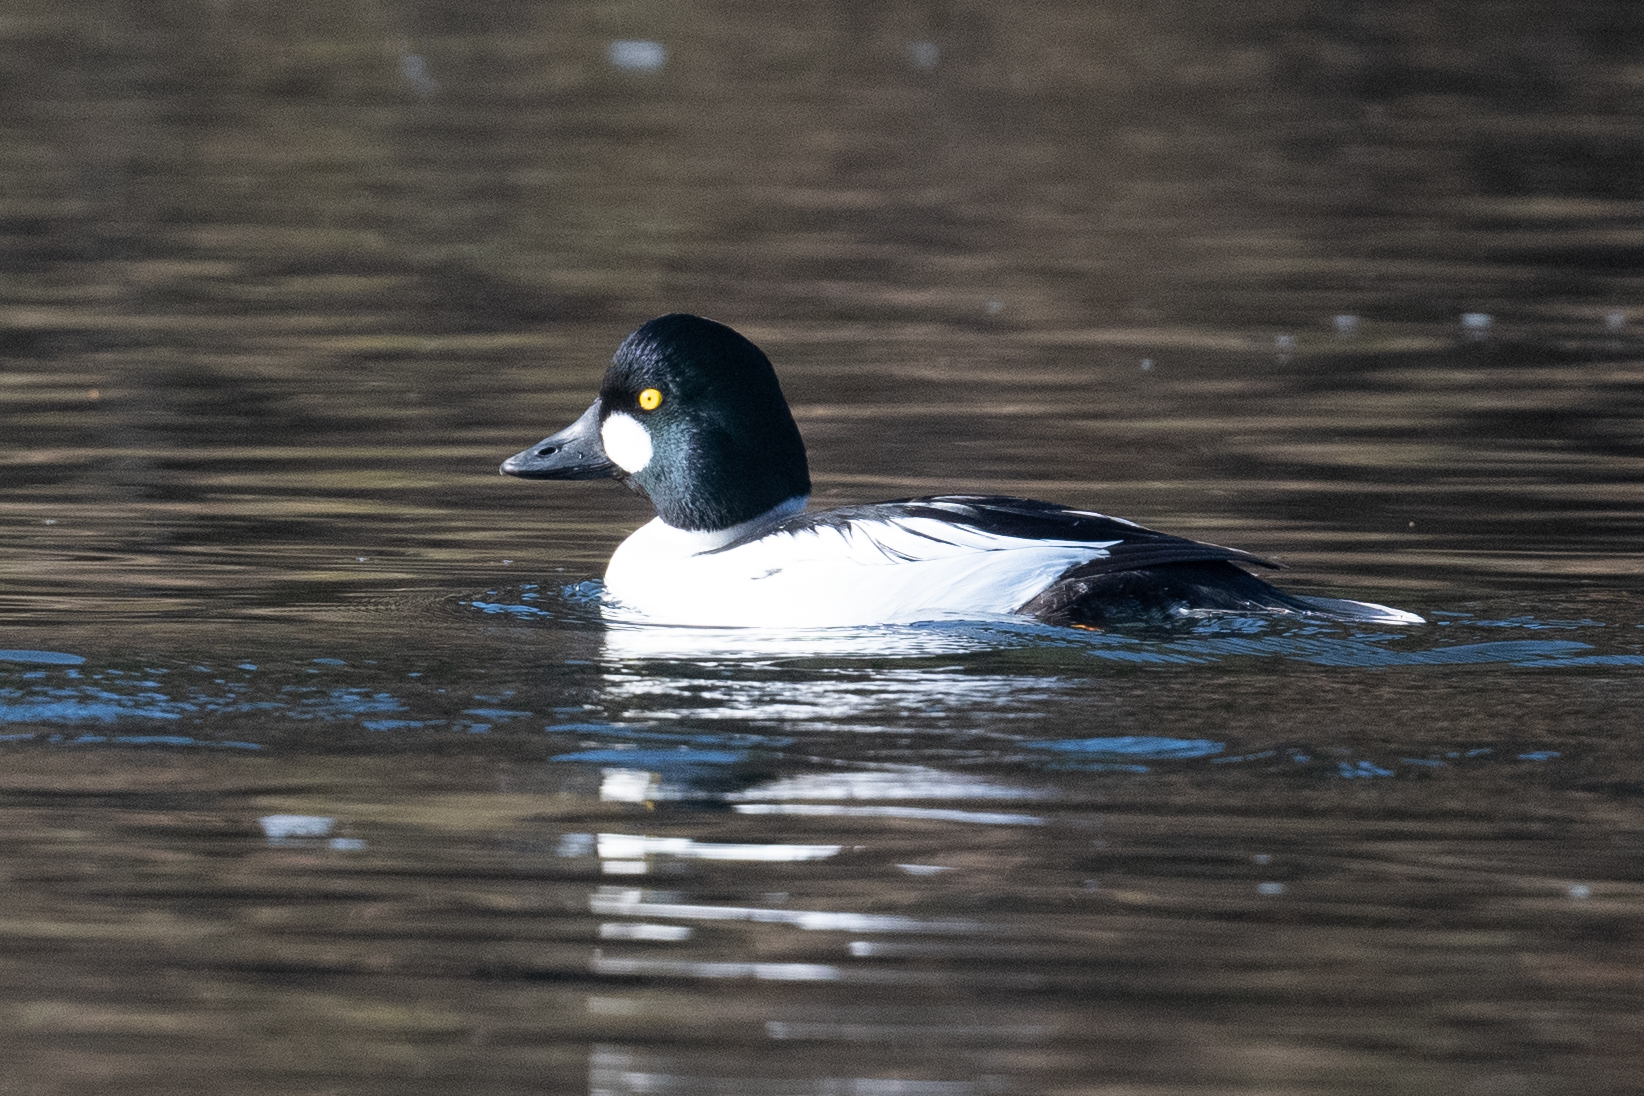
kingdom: Animalia
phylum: Chordata
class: Aves
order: Anseriformes
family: Anatidae
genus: Bucephala
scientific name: Bucephala clangula
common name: Common goldeneye
